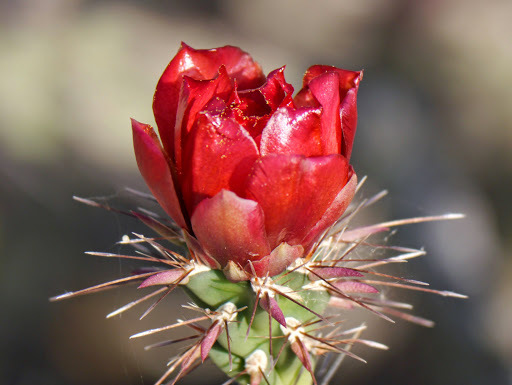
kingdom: Plantae
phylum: Tracheophyta
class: Magnoliopsida
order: Caryophyllales
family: Cactaceae
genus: Cylindropuntia
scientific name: Cylindropuntia thurberi
